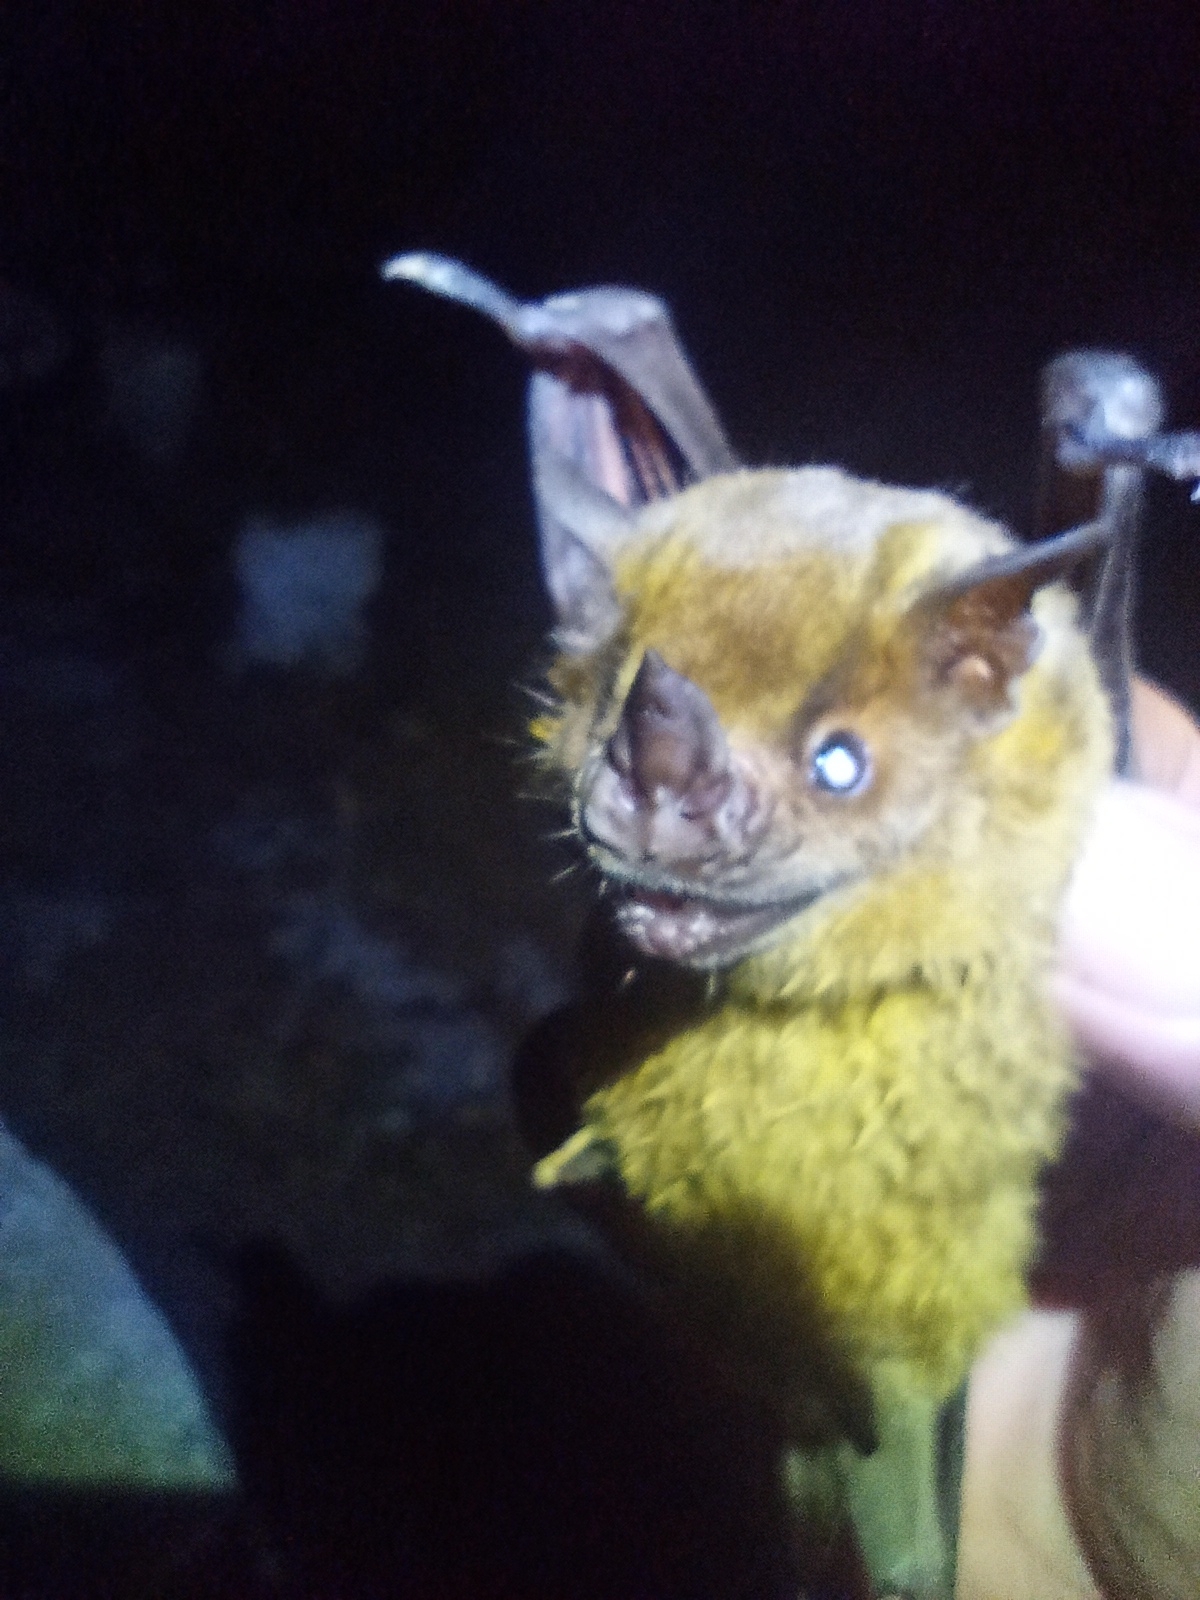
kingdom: Animalia
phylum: Chordata
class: Mammalia
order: Chiroptera
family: Phyllostomidae
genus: Artibeus
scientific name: Artibeus jamaicensis
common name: Jamaican fruit-eating bat
